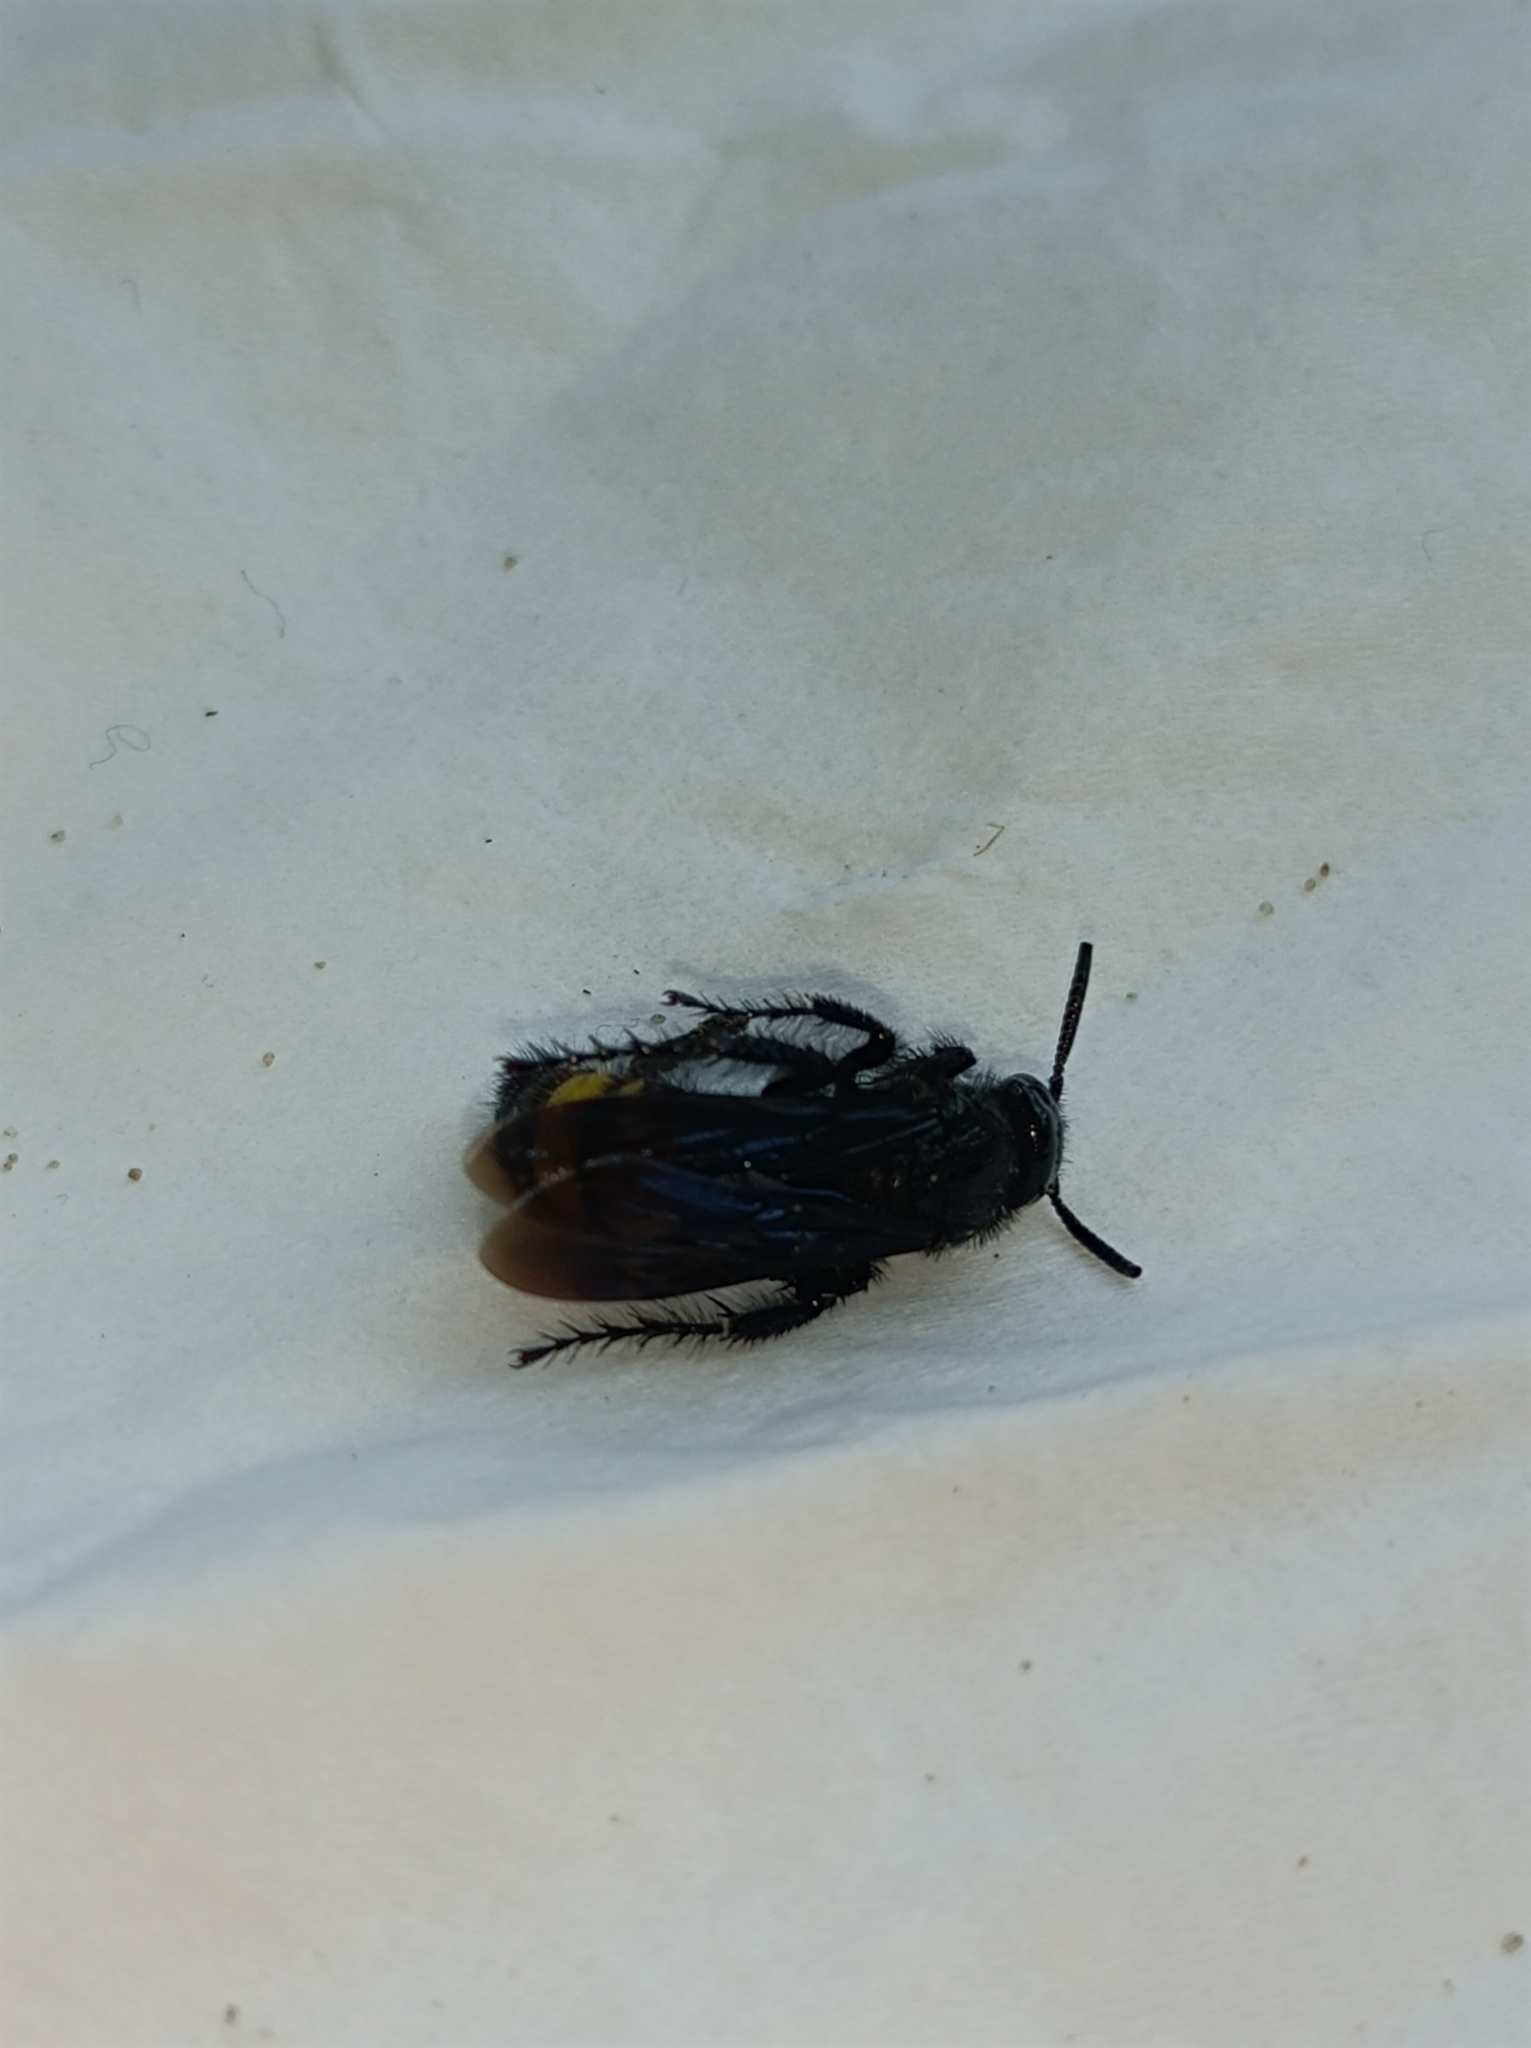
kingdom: Animalia
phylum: Arthropoda
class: Insecta
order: Hymenoptera
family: Scoliidae
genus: Scolia
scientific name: Scolia hirta
